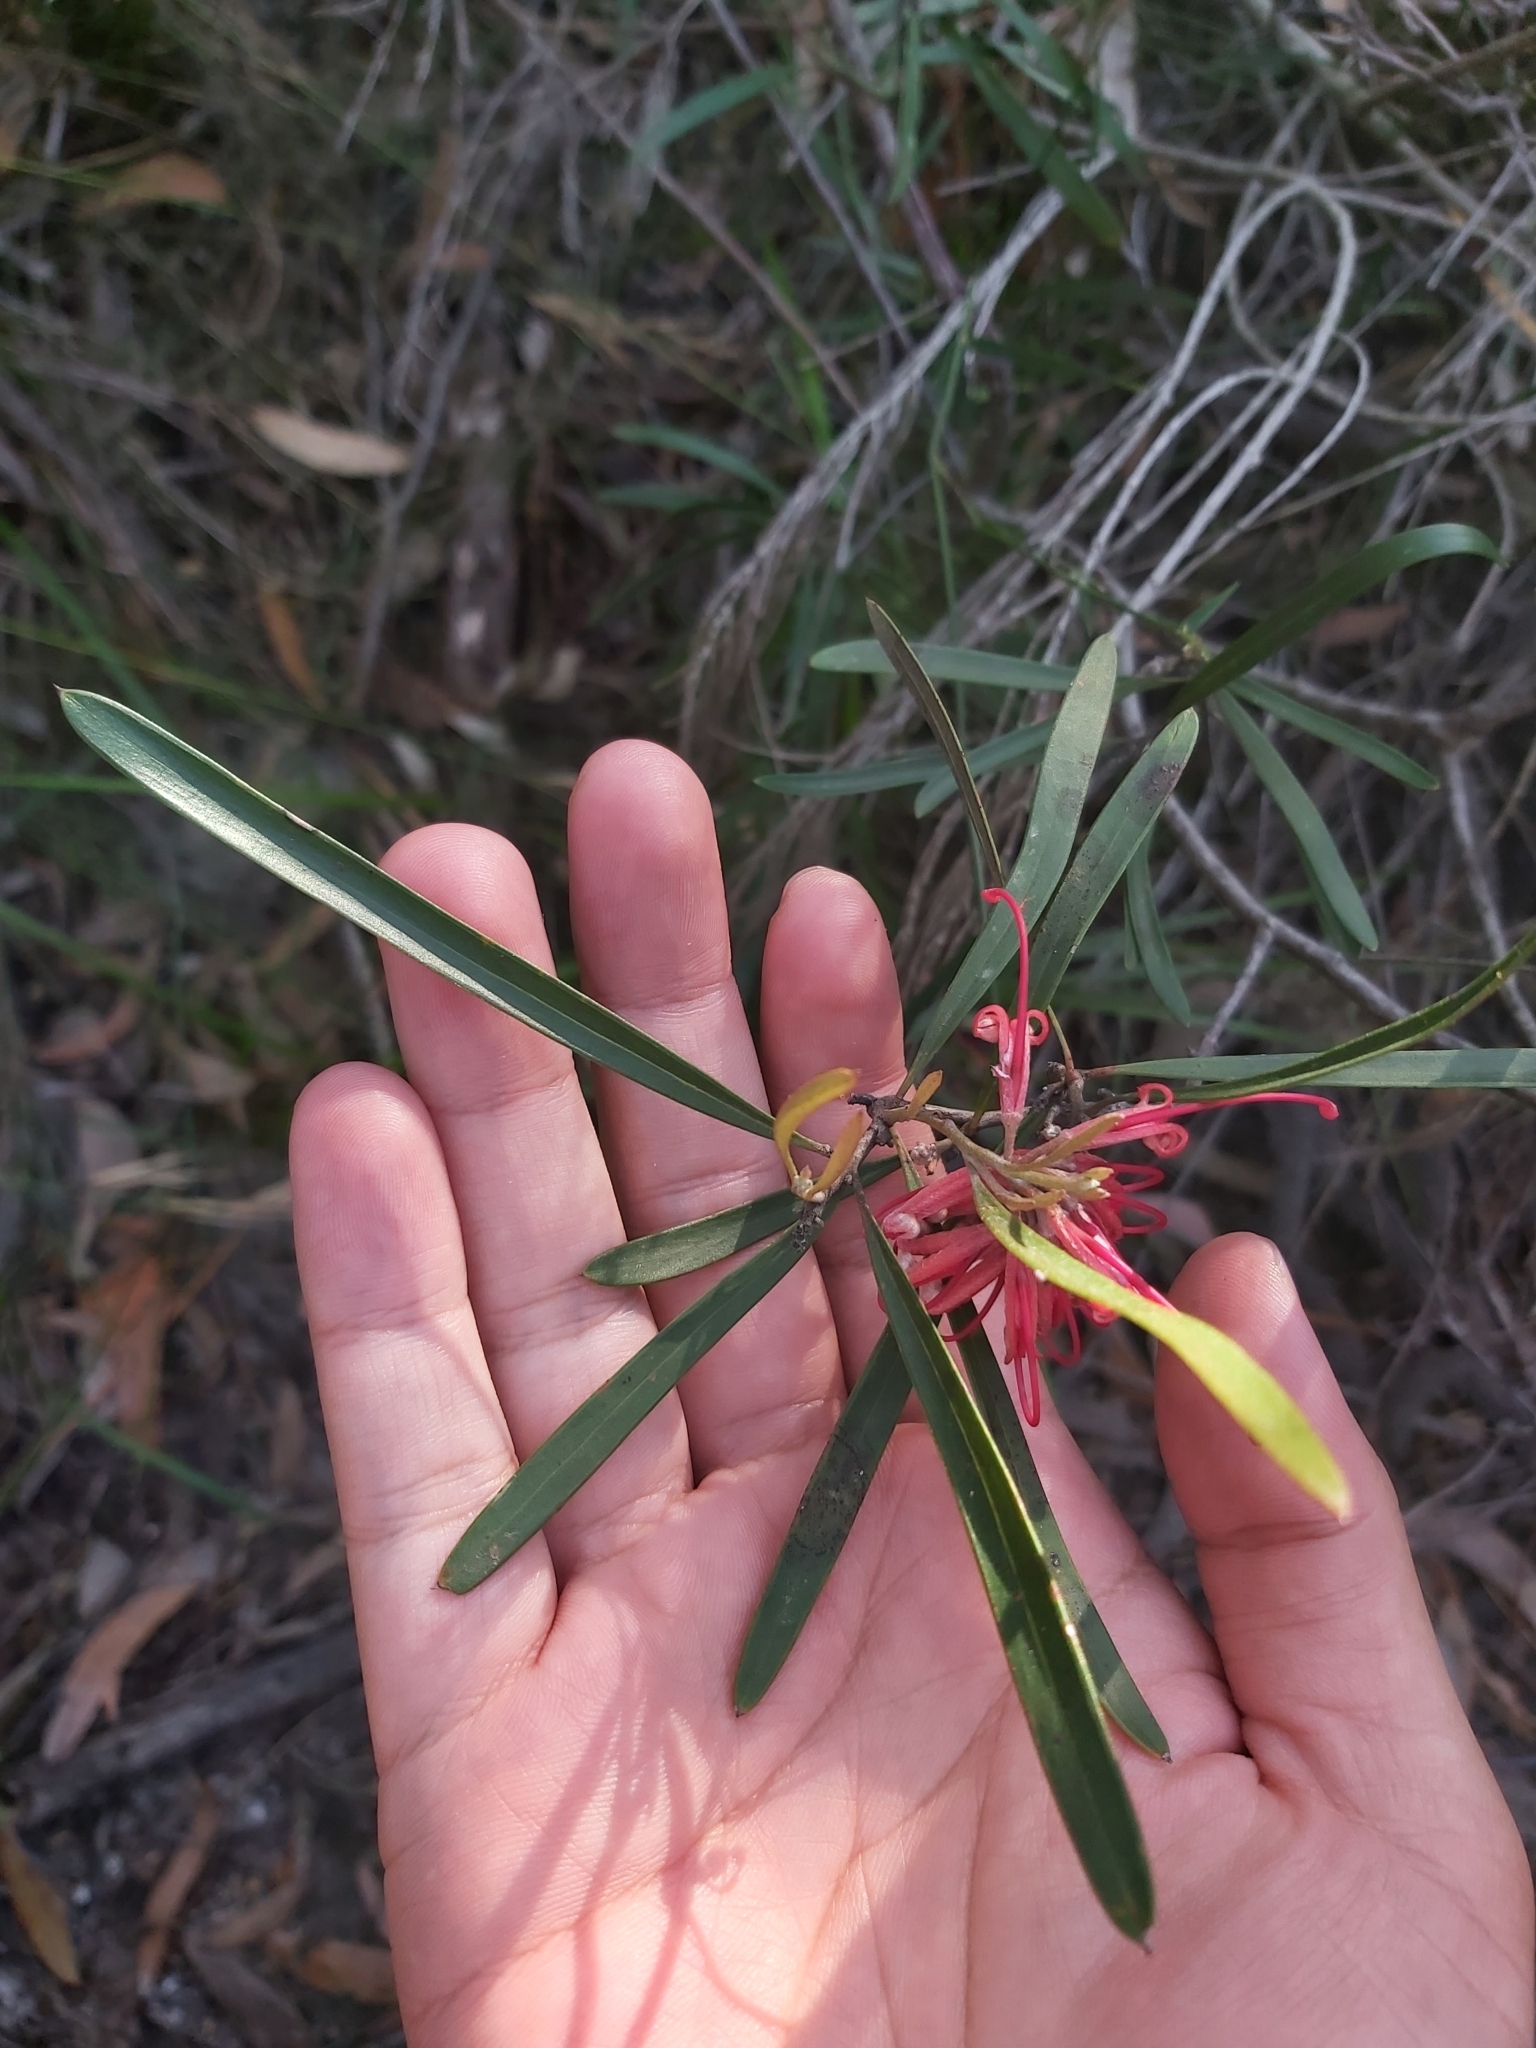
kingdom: Plantae
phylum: Tracheophyta
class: Magnoliopsida
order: Proteales
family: Proteaceae
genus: Grevillea
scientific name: Grevillea oleoides
